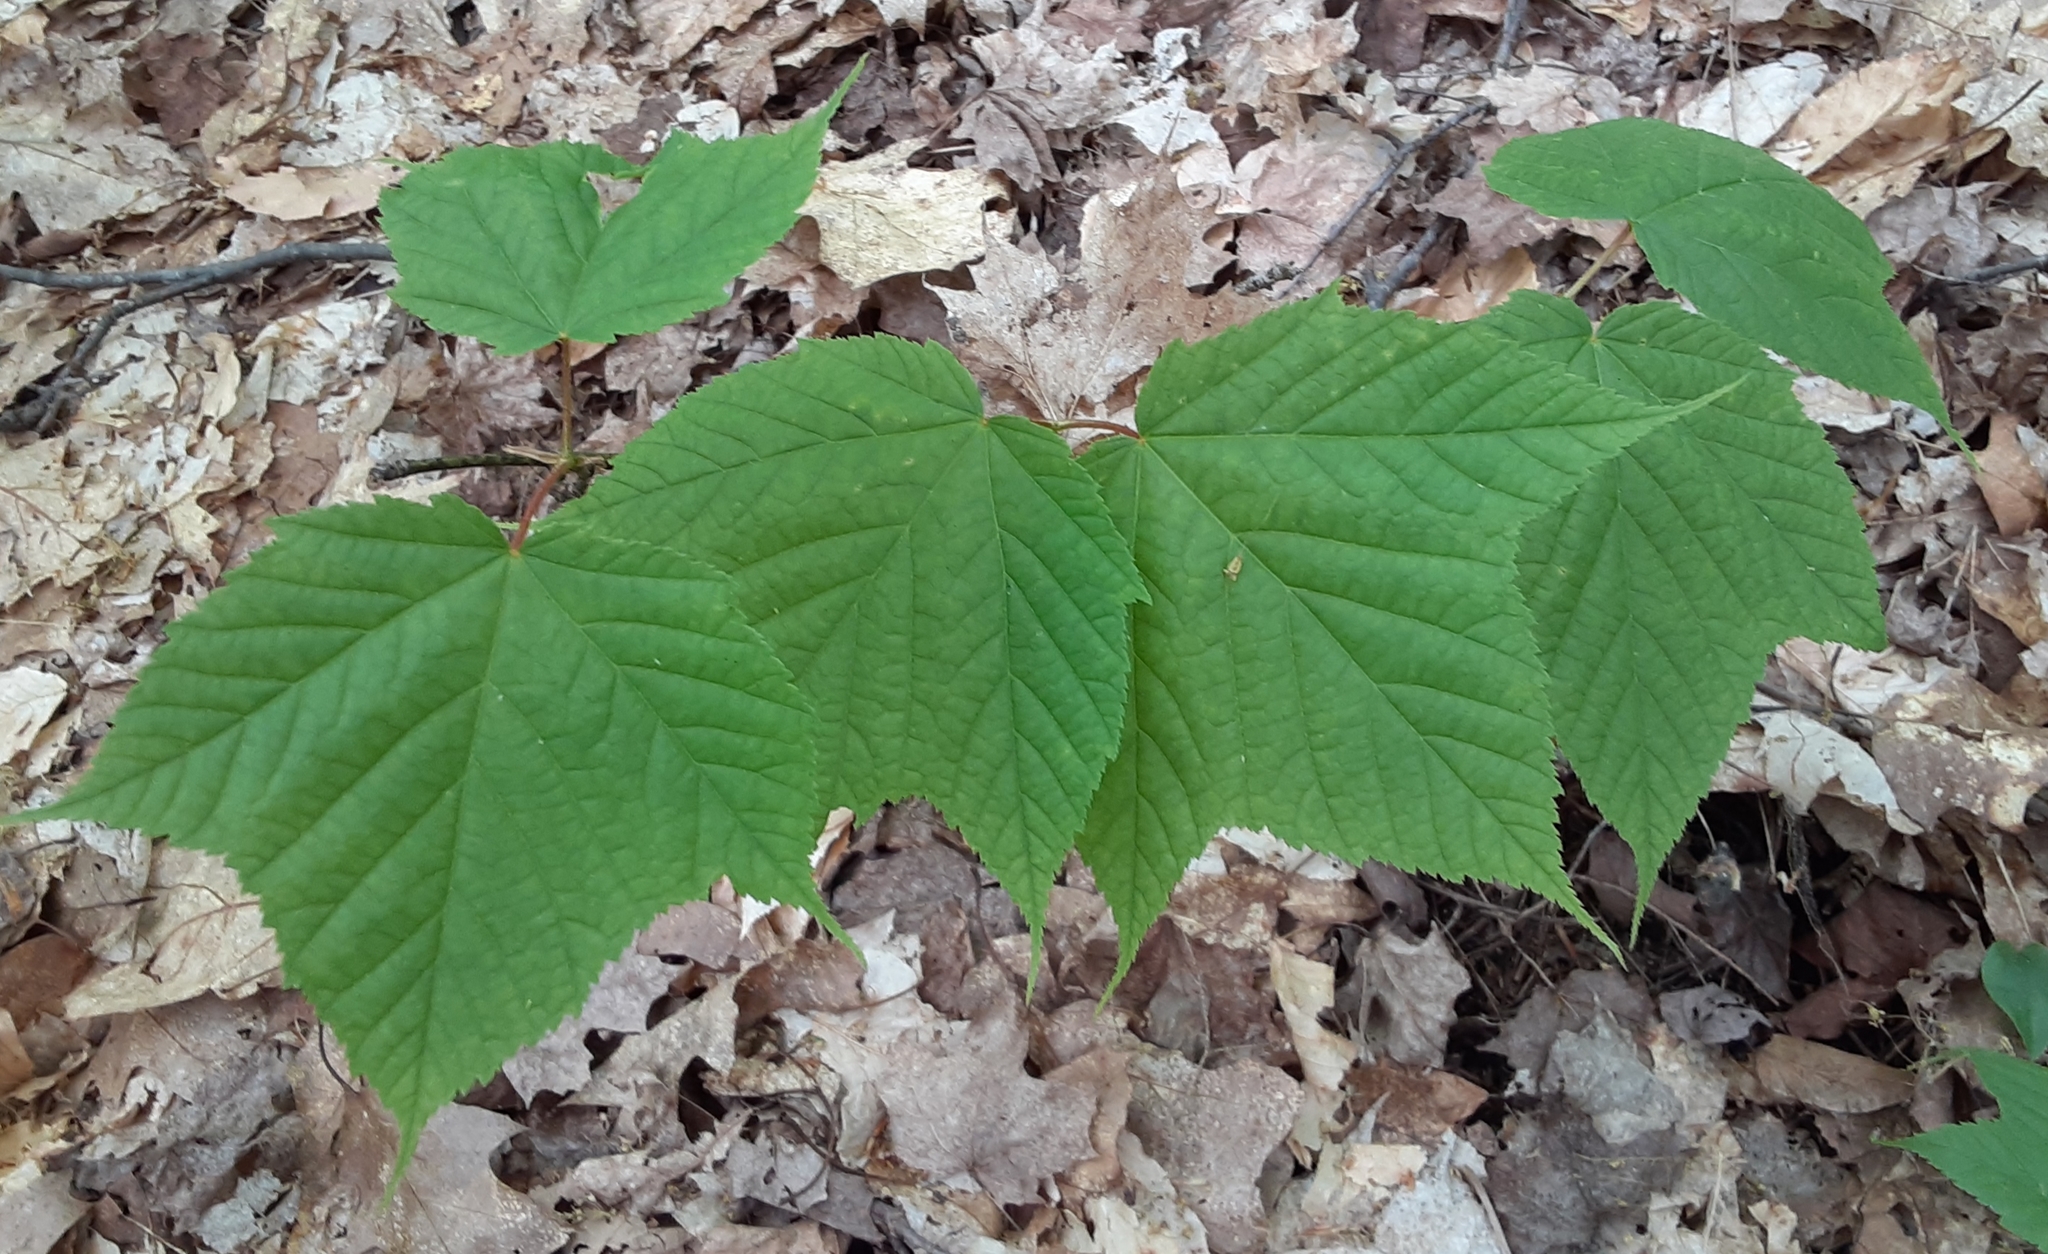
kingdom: Plantae
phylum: Tracheophyta
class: Magnoliopsida
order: Sapindales
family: Sapindaceae
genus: Acer
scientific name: Acer pensylvanicum
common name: Moosewood
